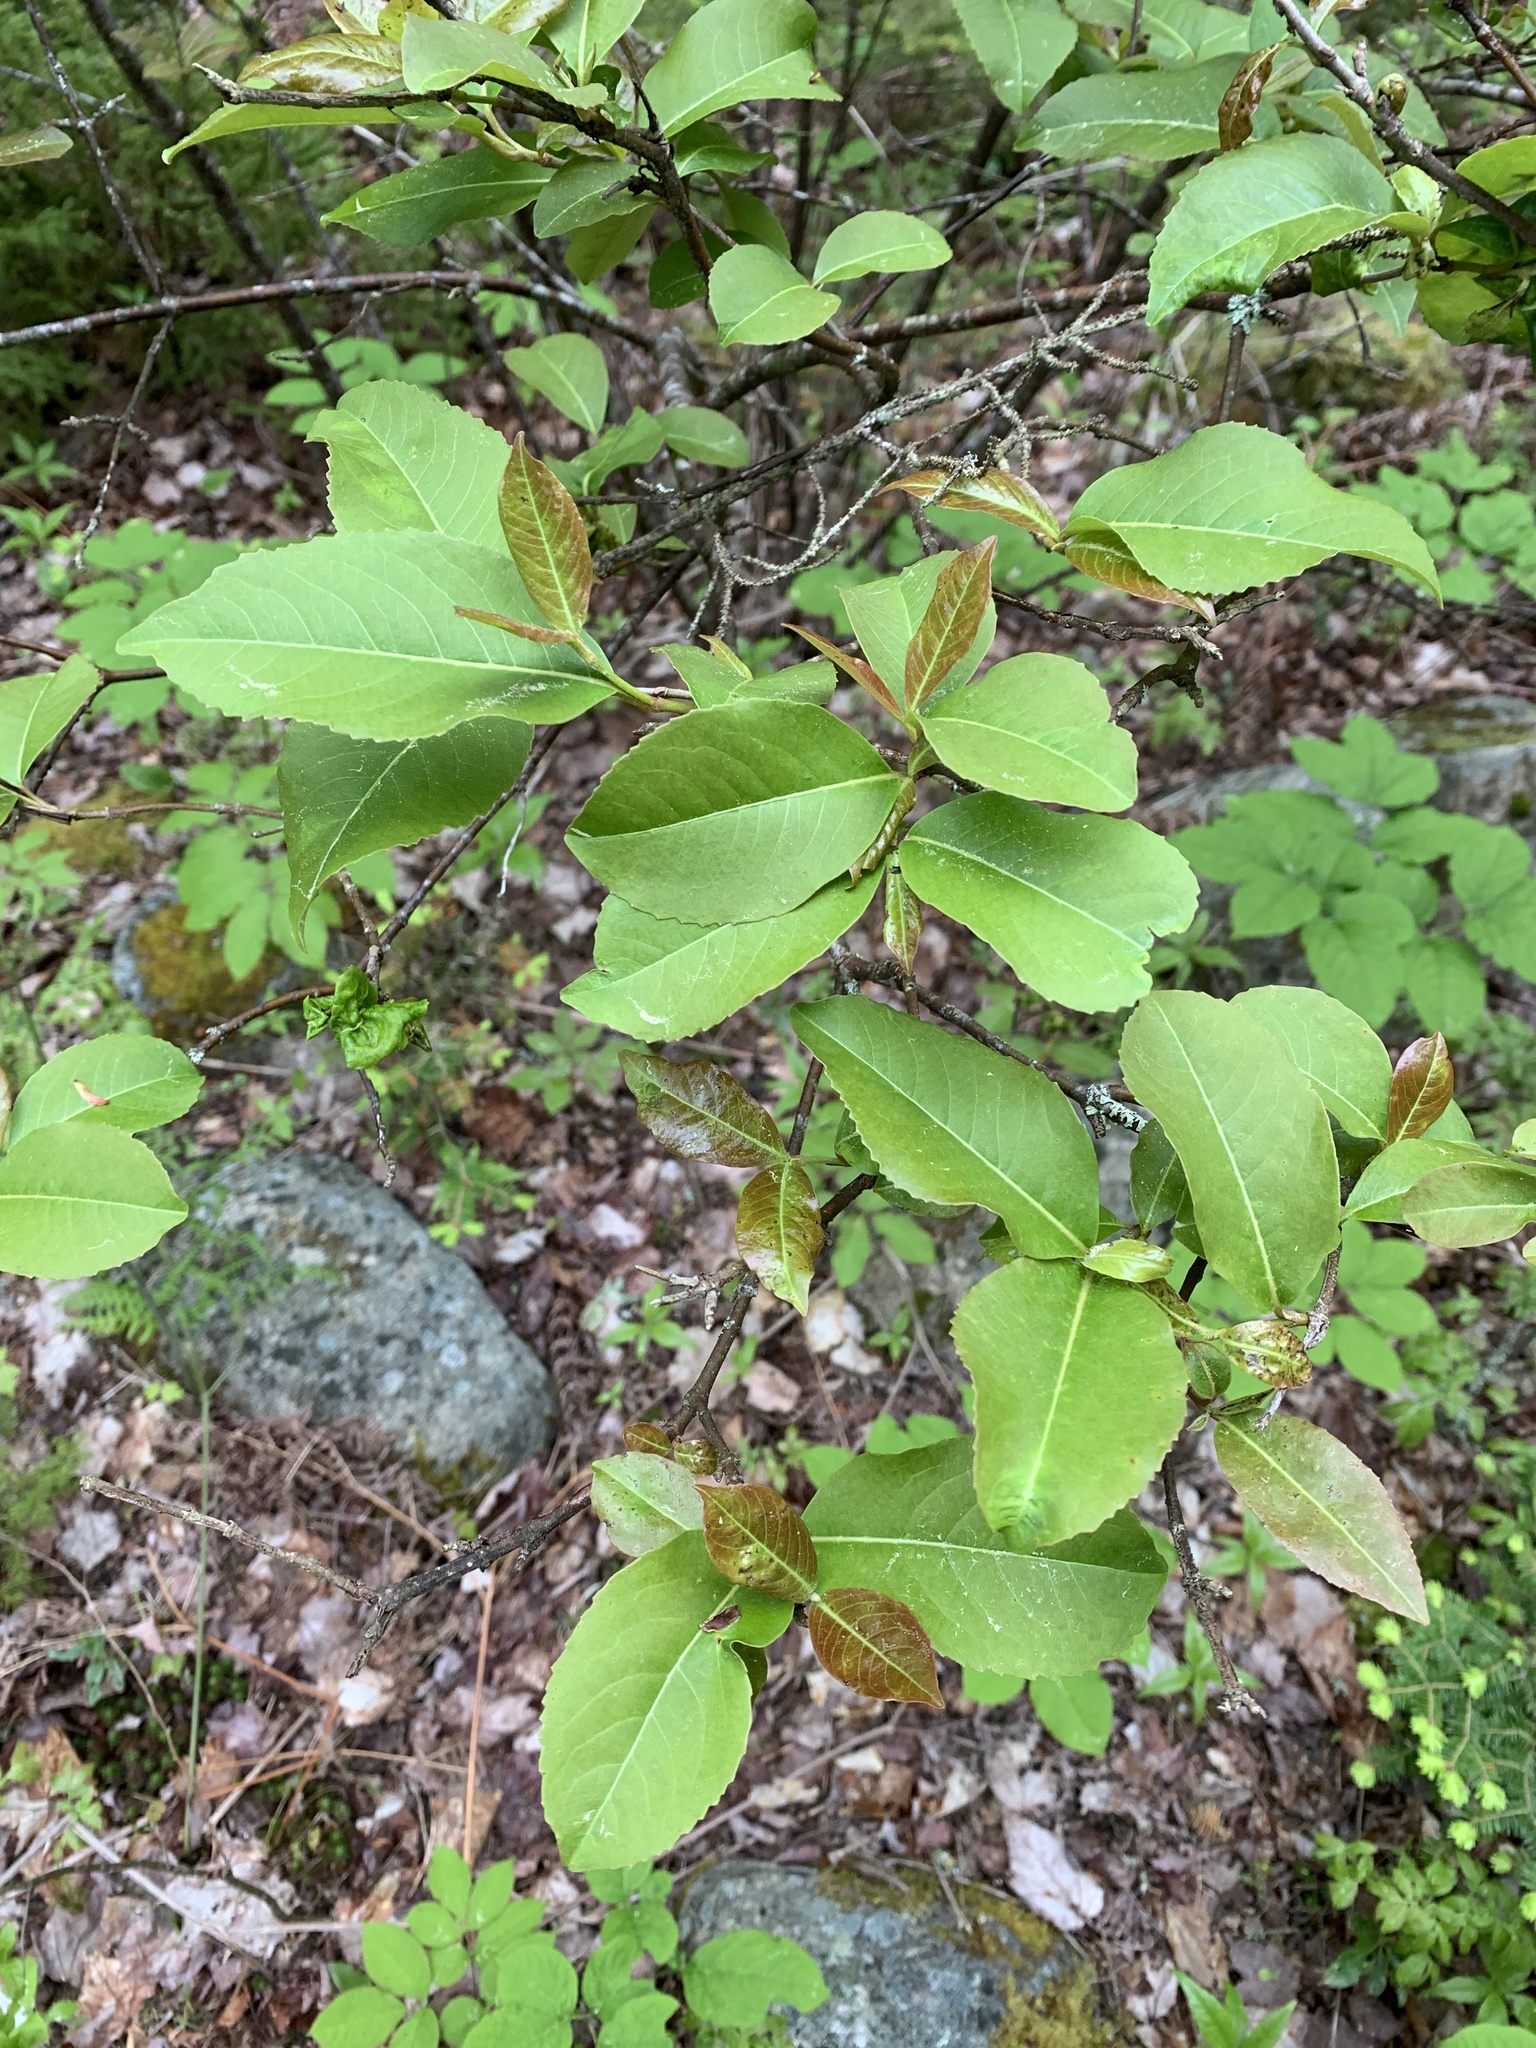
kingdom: Plantae
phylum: Tracheophyta
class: Magnoliopsida
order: Dipsacales
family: Viburnaceae
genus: Viburnum
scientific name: Viburnum cassinoides
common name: Swamp haw
